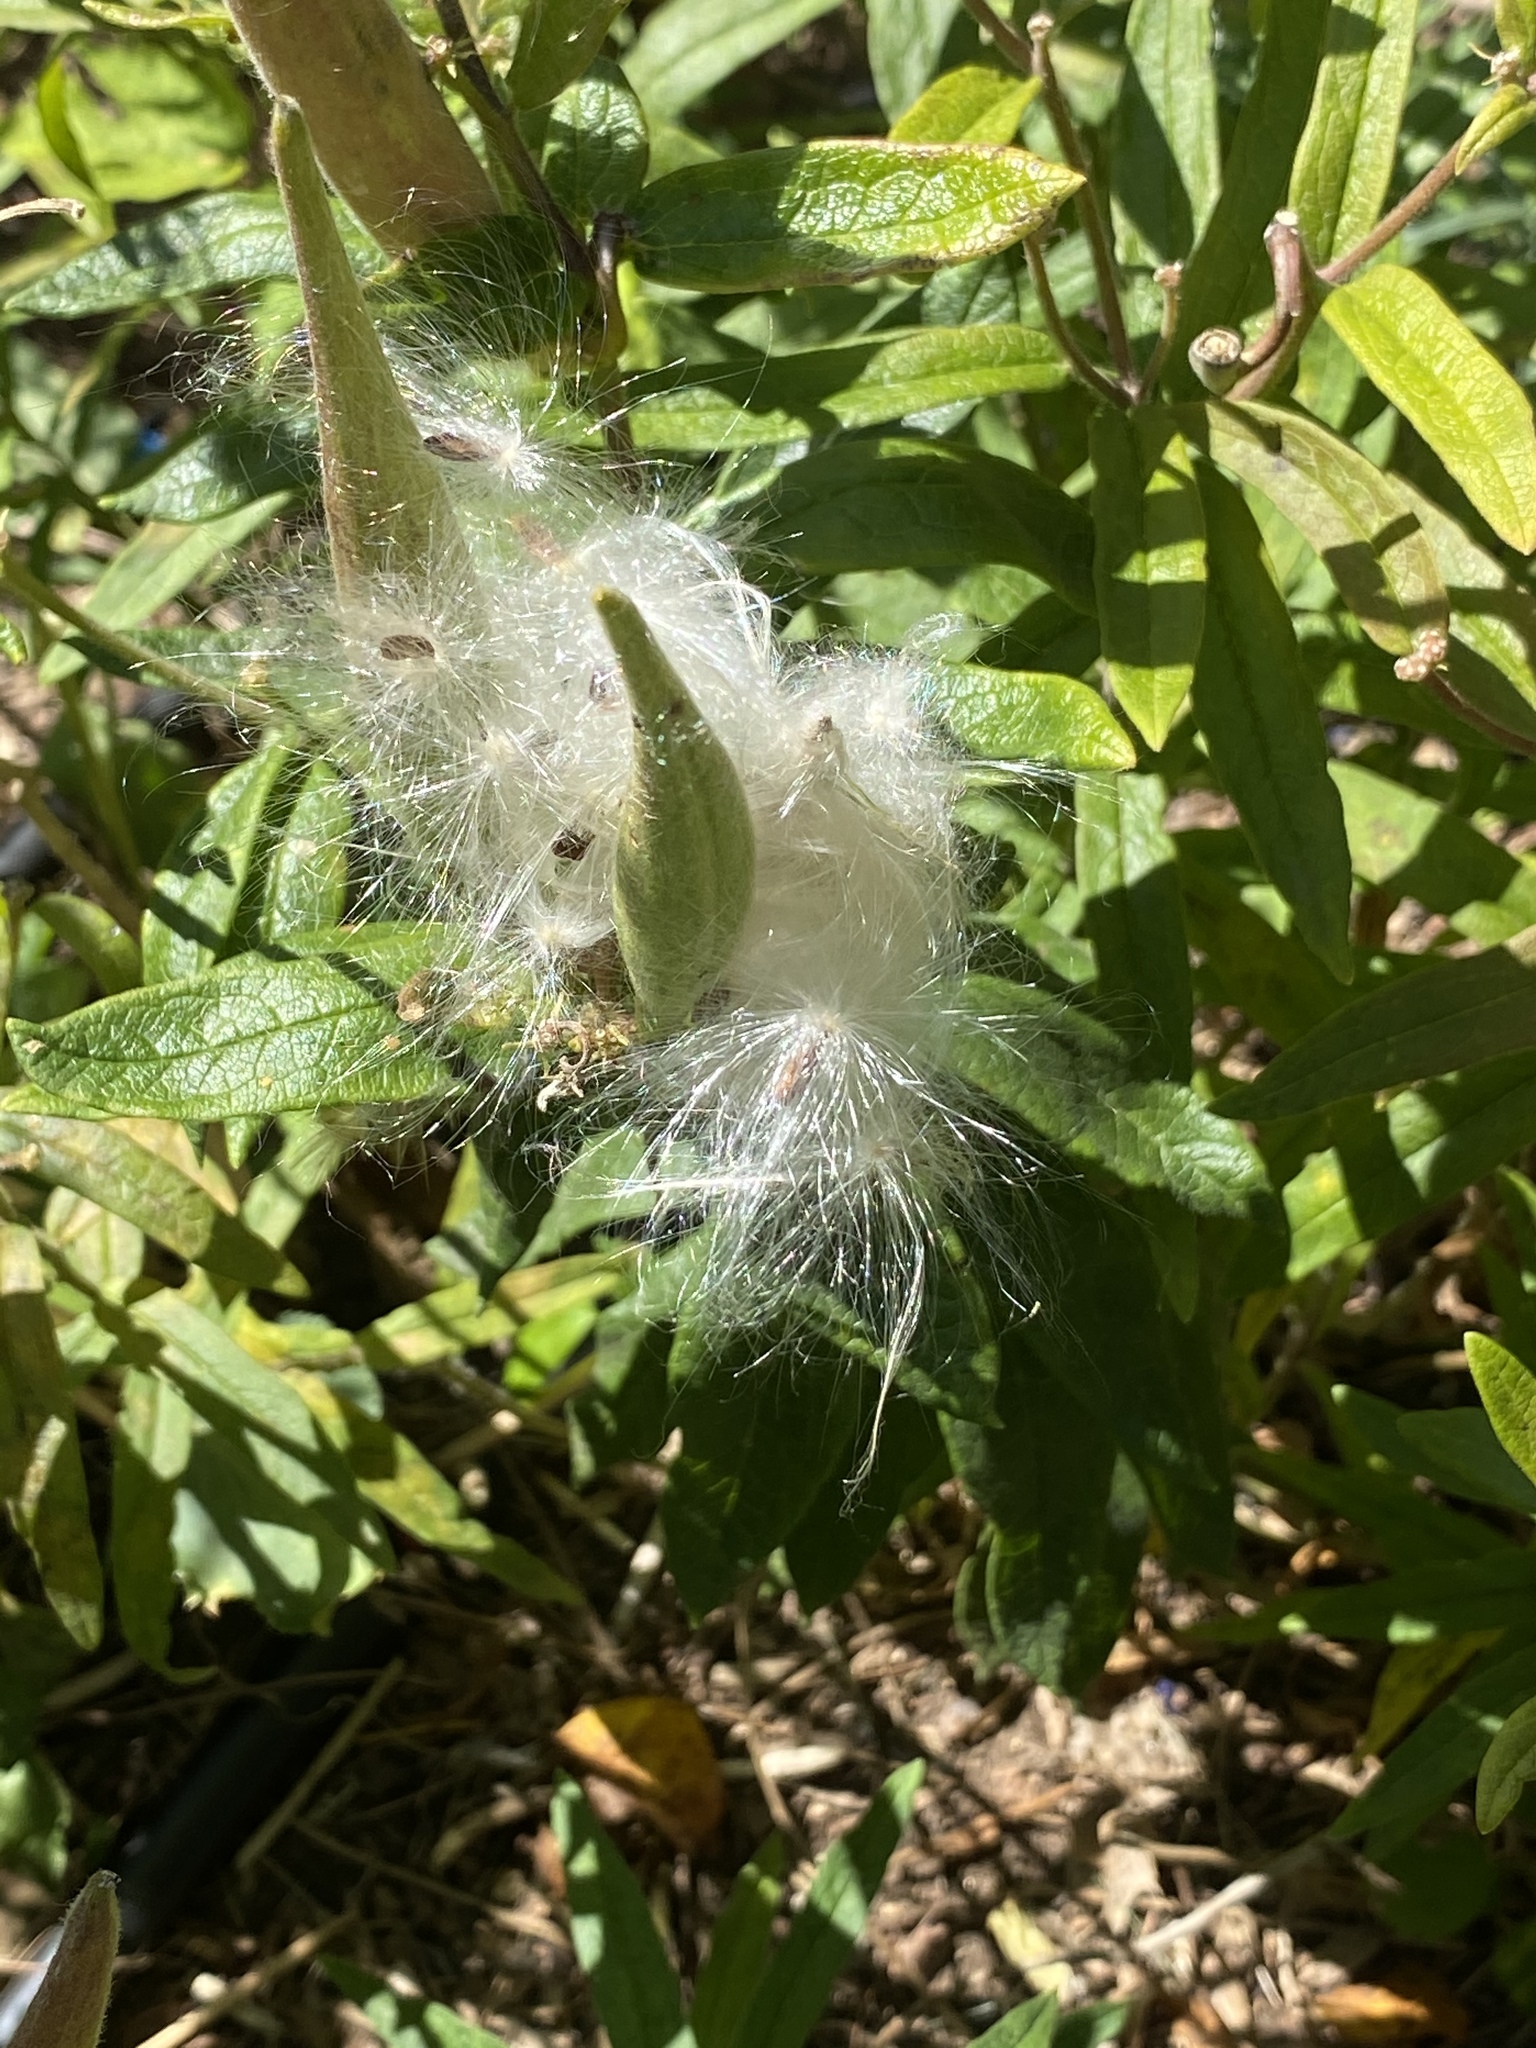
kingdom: Plantae
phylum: Tracheophyta
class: Magnoliopsida
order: Gentianales
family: Apocynaceae
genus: Asclepias
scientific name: Asclepias tuberosa
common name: Butterfly milkweed
